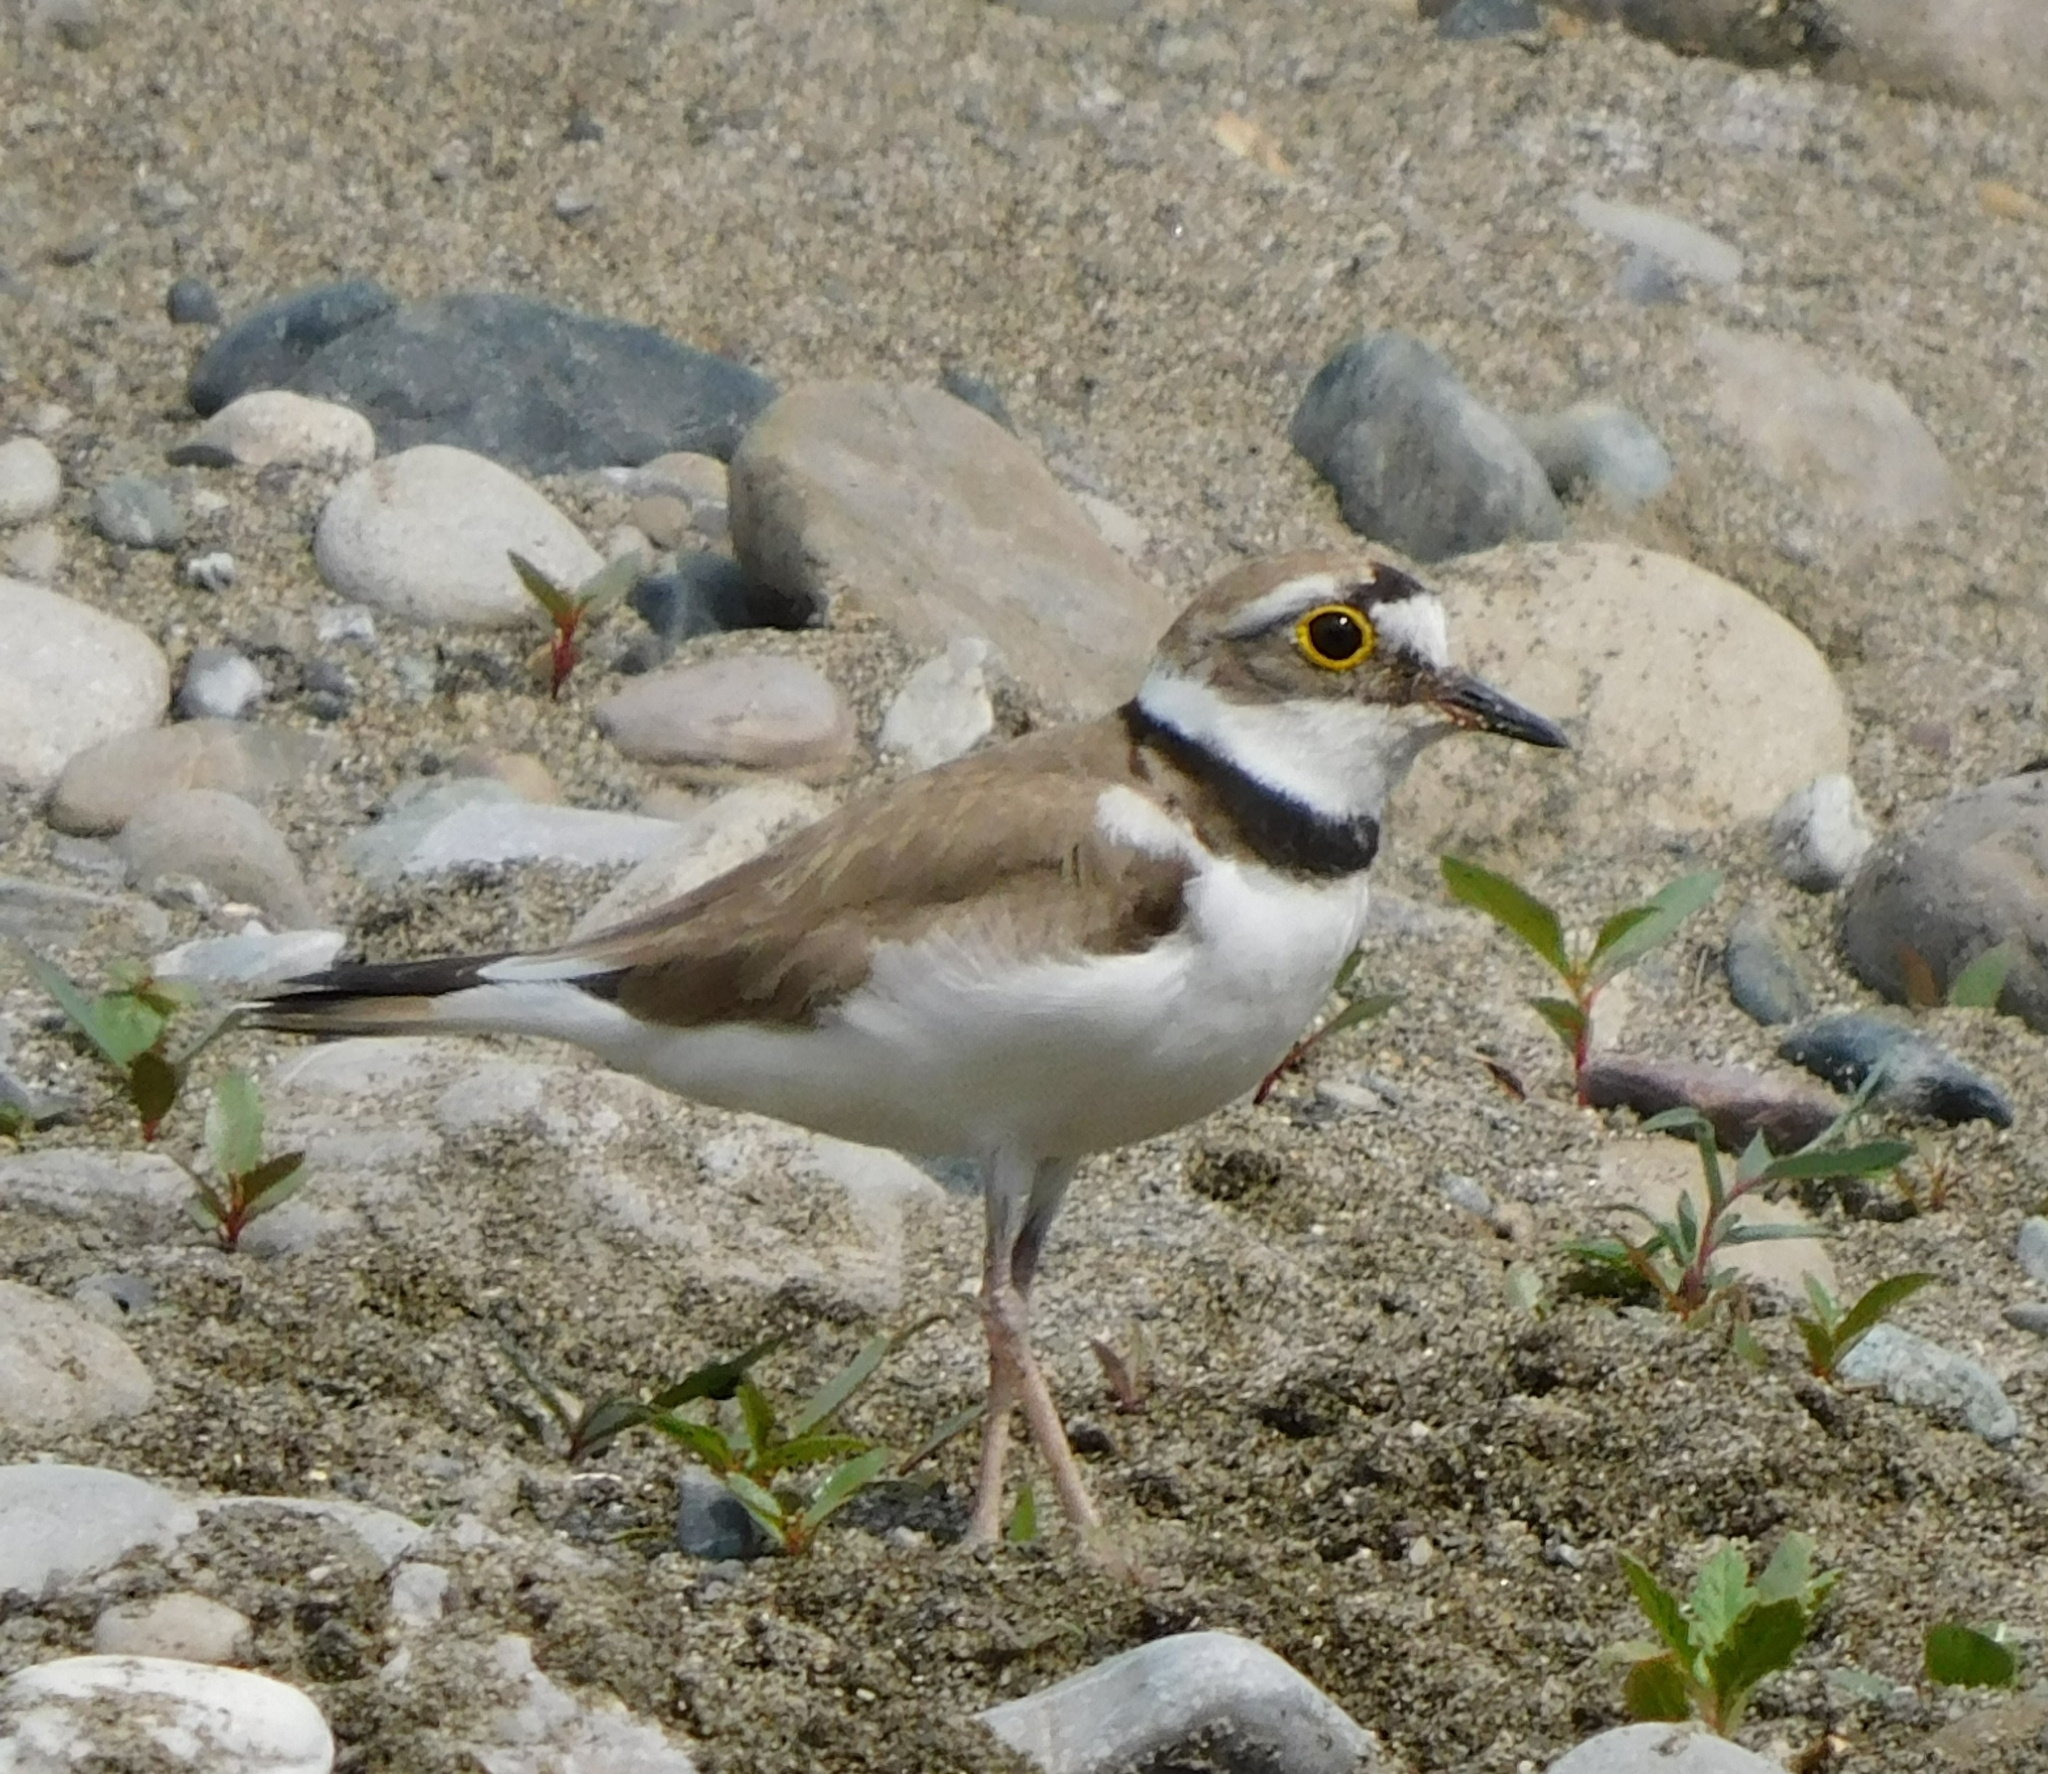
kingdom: Animalia
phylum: Chordata
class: Aves
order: Charadriiformes
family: Charadriidae
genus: Charadrius
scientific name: Charadrius dubius
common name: Little ringed plover
